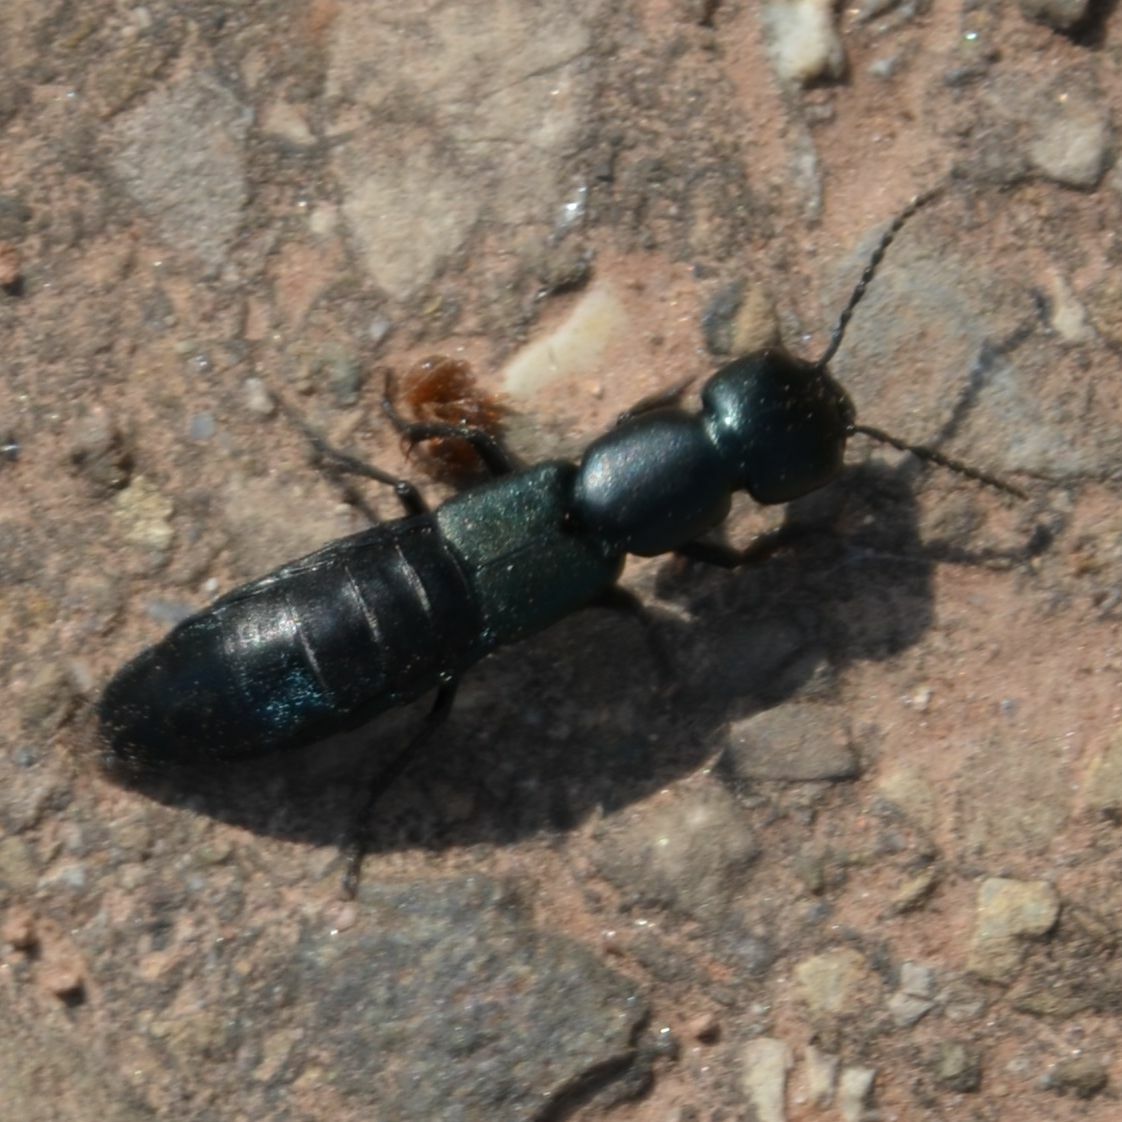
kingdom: Animalia
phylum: Arthropoda
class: Insecta
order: Coleoptera
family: Staphylinidae
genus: Ocypus
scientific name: Ocypus ophthalmicus
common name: Blue rove-beetle
